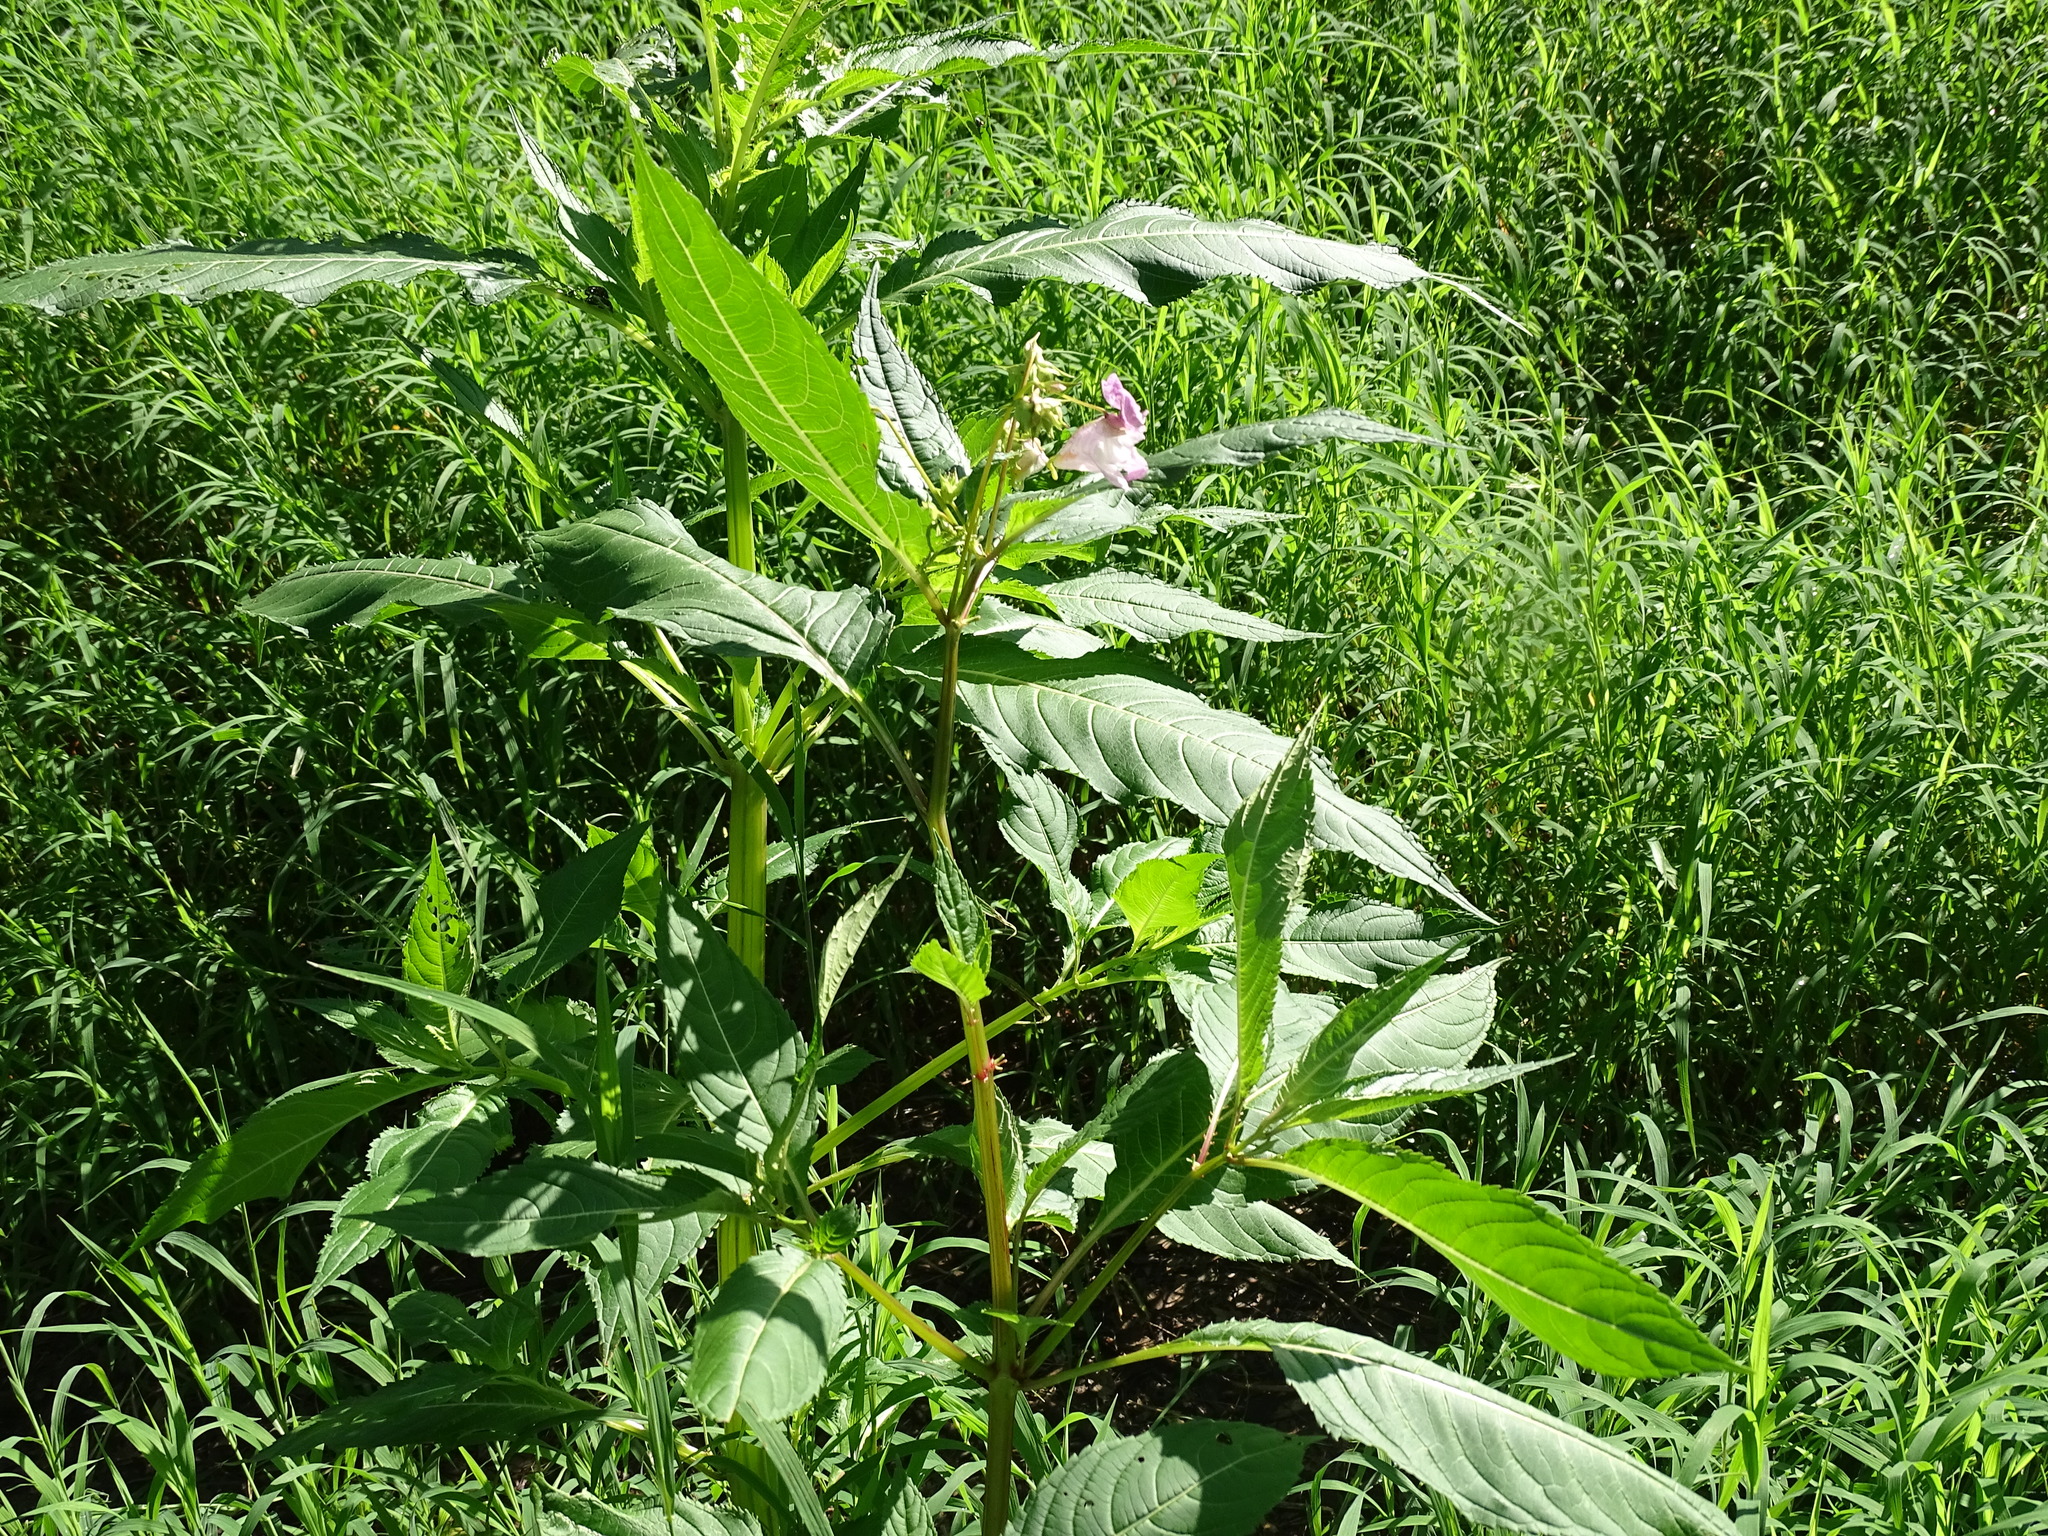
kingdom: Plantae
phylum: Tracheophyta
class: Magnoliopsida
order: Ericales
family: Balsaminaceae
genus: Impatiens
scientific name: Impatiens glandulifera
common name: Himalayan balsam
